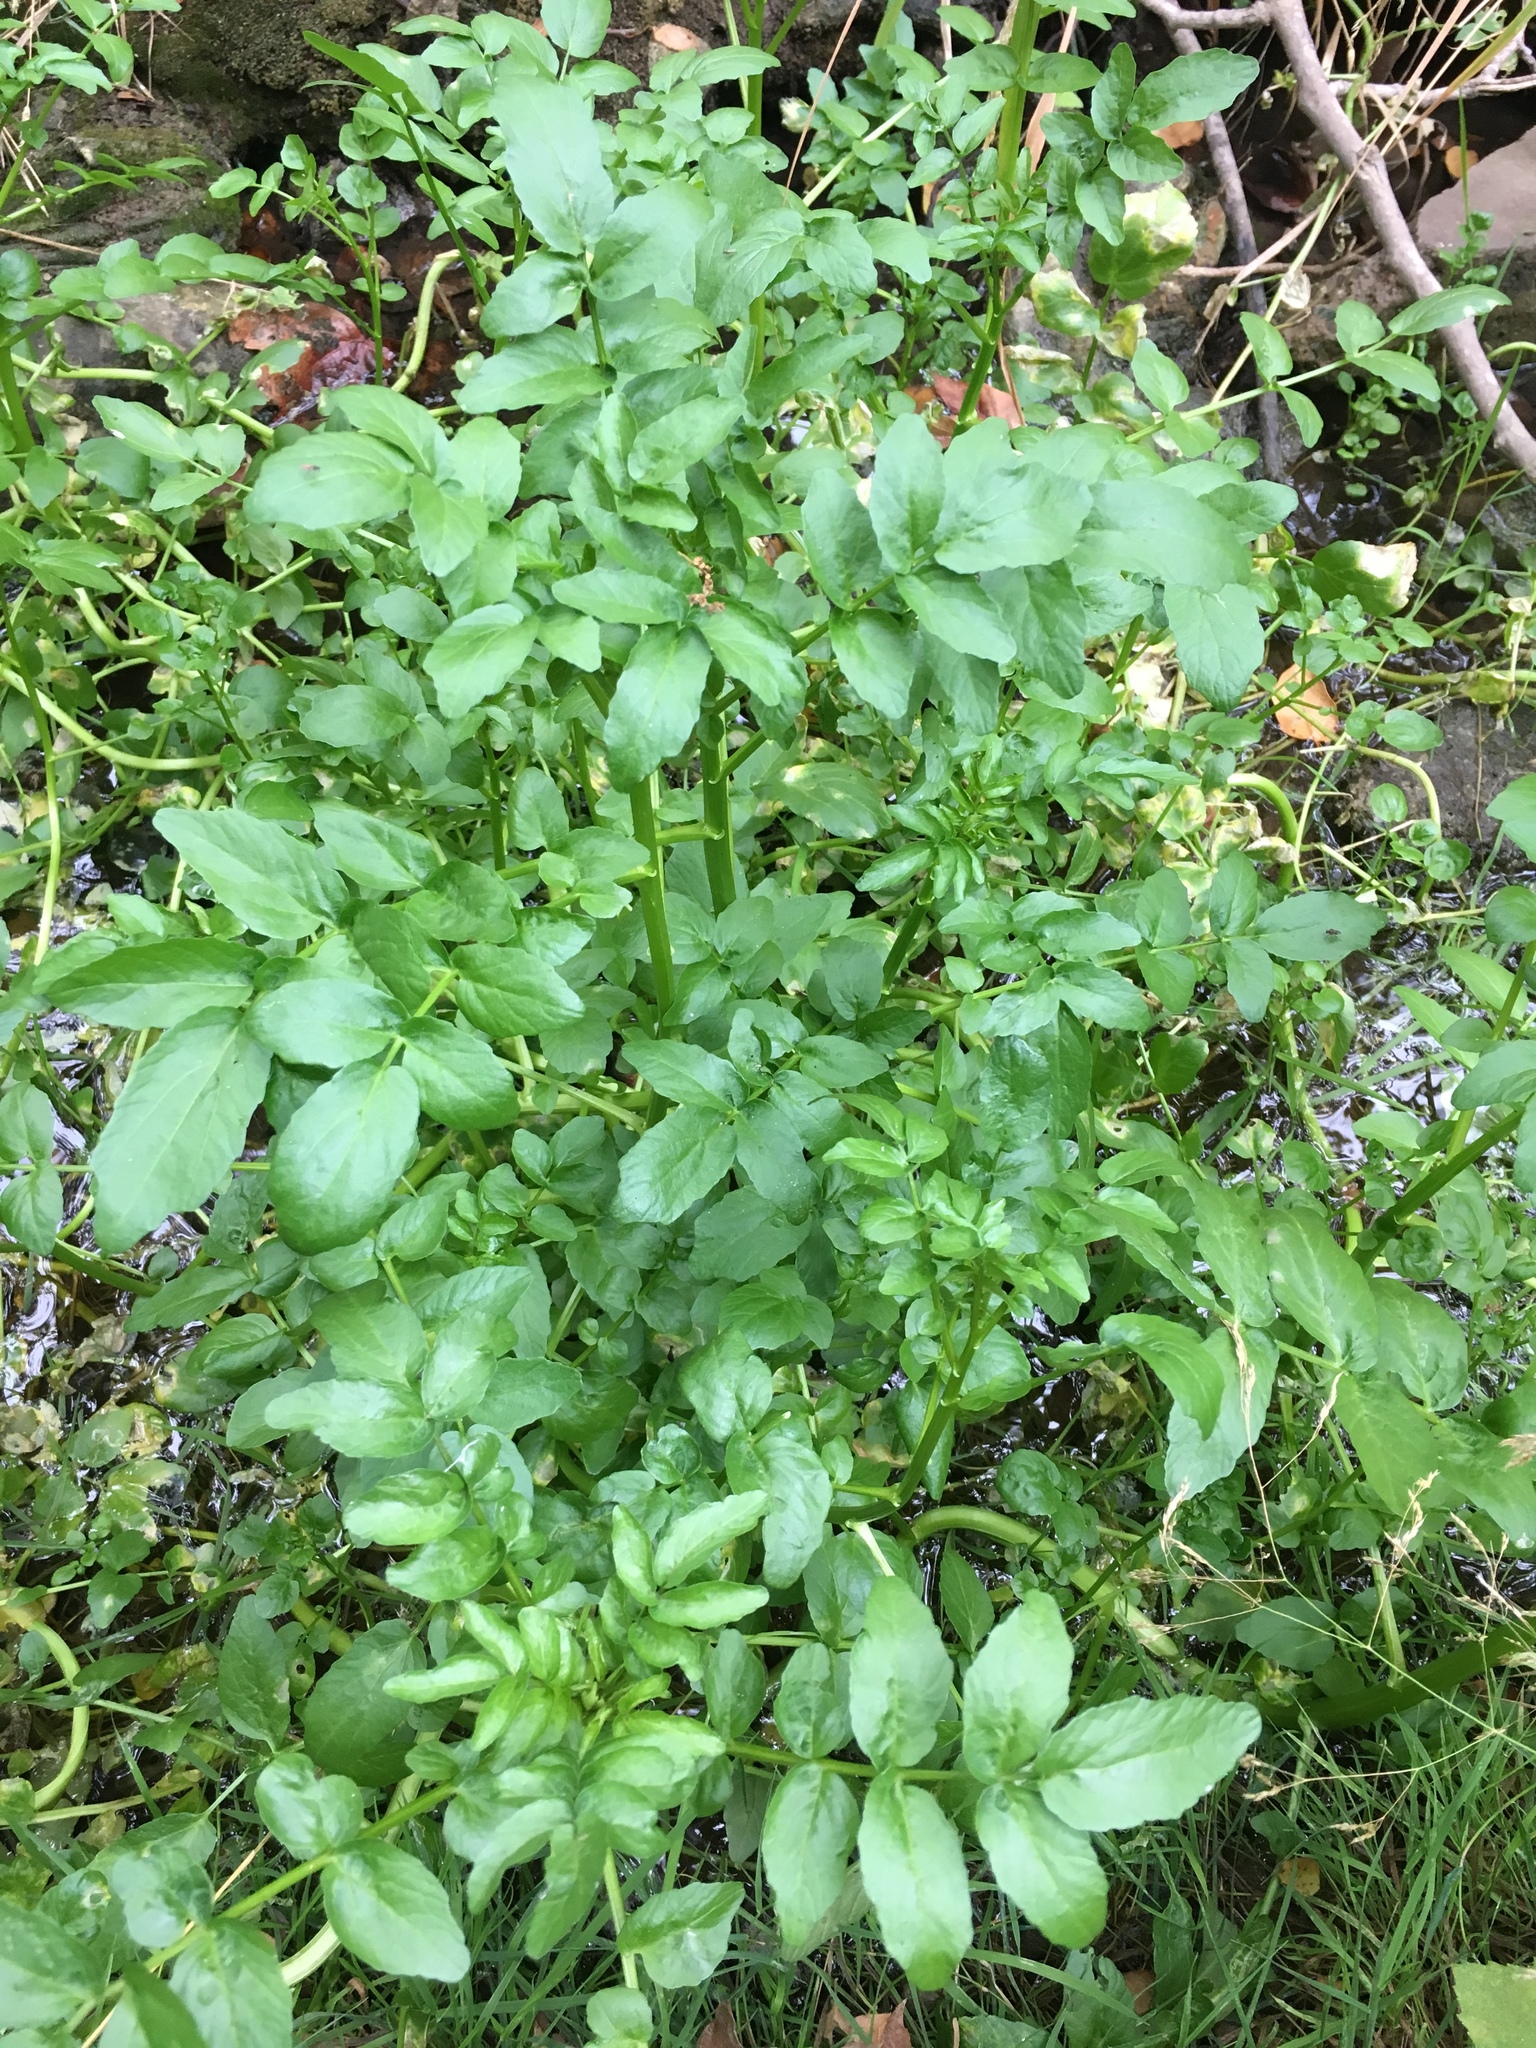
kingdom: Plantae
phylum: Tracheophyta
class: Magnoliopsida
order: Brassicales
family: Brassicaceae
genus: Nasturtium
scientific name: Nasturtium officinale
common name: Watercress
